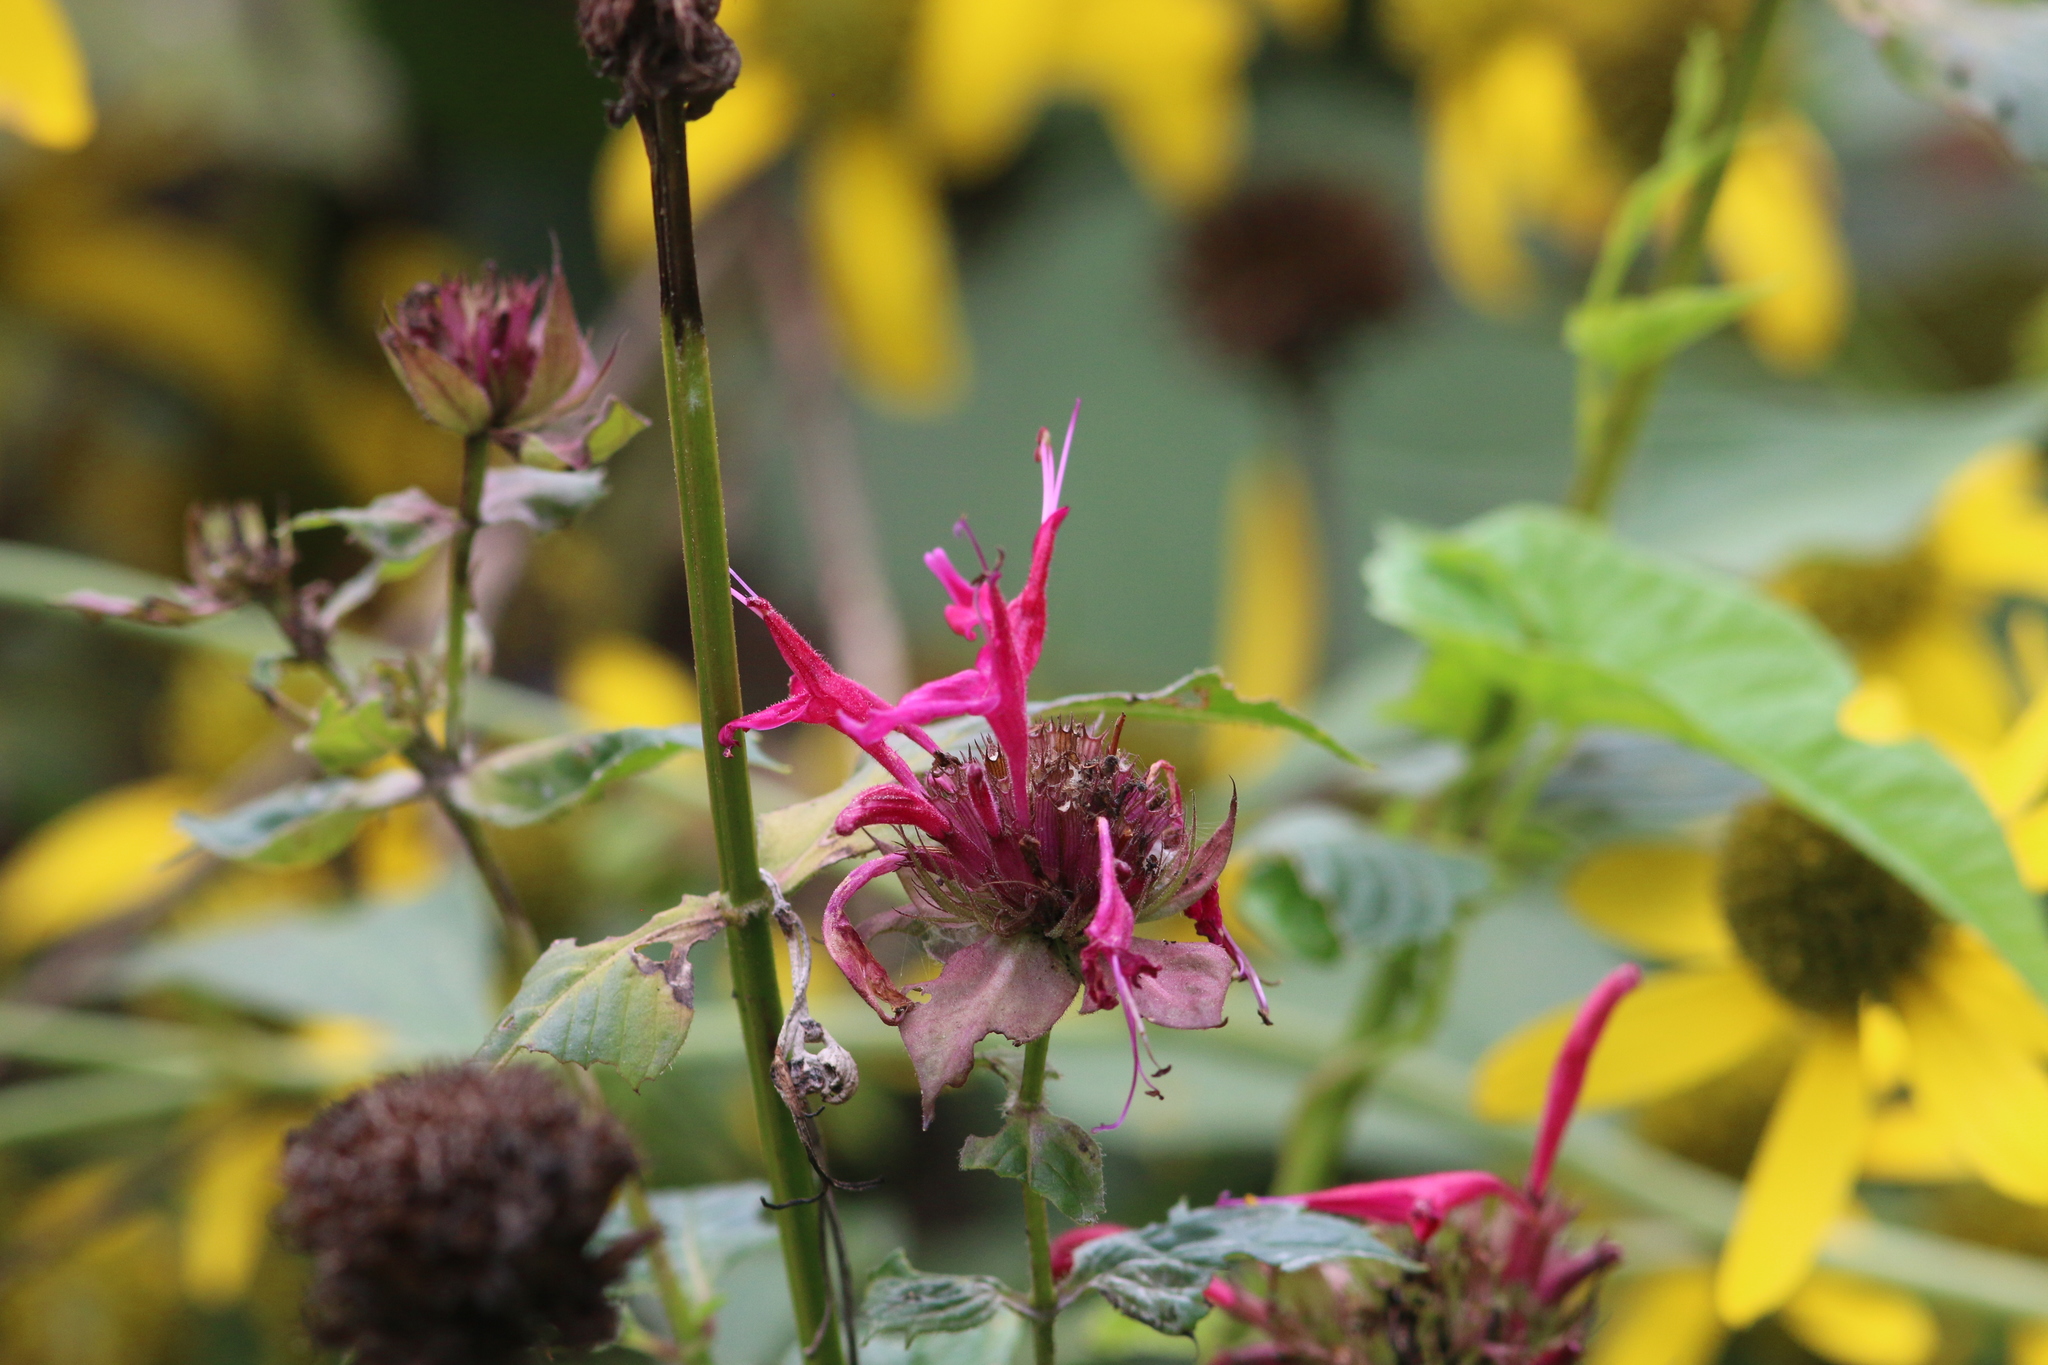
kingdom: Plantae
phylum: Tracheophyta
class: Magnoliopsida
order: Lamiales
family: Lamiaceae
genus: Monarda
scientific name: Monarda didyma
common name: Beebalm
